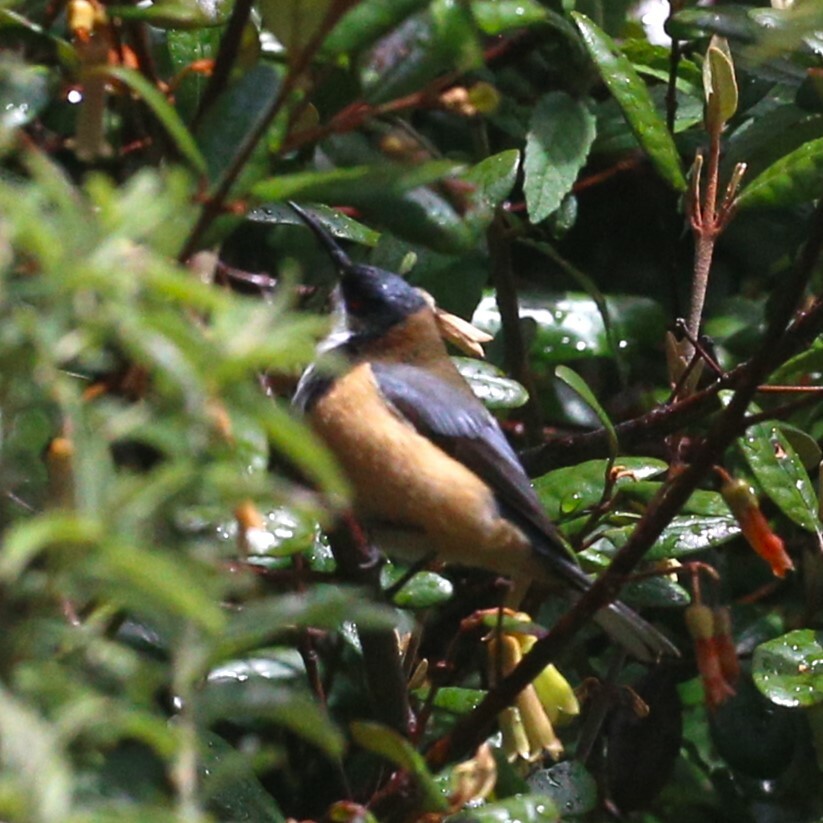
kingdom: Animalia
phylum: Chordata
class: Aves
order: Passeriformes
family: Meliphagidae
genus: Acanthorhynchus
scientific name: Acanthorhynchus tenuirostris
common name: Eastern spinebill
